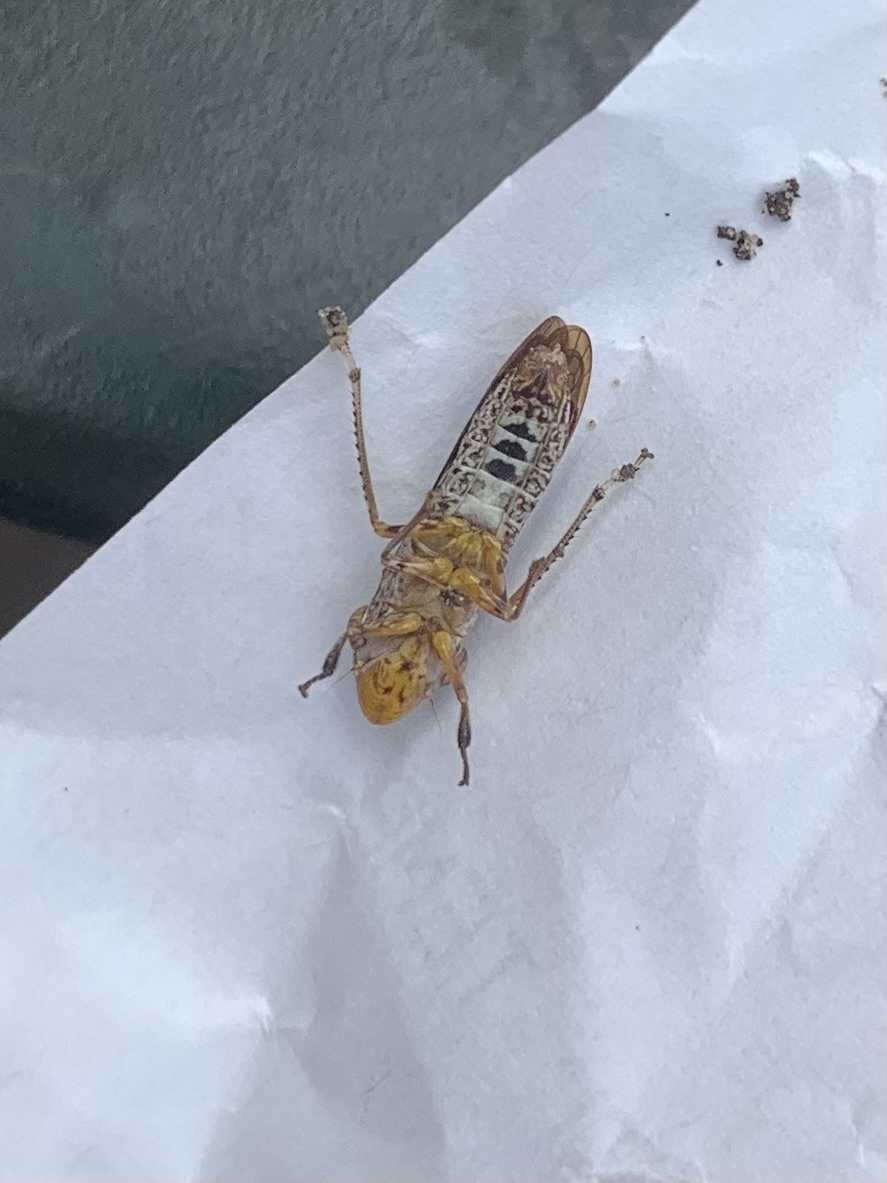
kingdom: Animalia
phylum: Arthropoda
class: Insecta
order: Hemiptera
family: Cicadellidae
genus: Homalodisca
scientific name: Homalodisca vitripennis
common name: Glassy-winged sharpshooter
